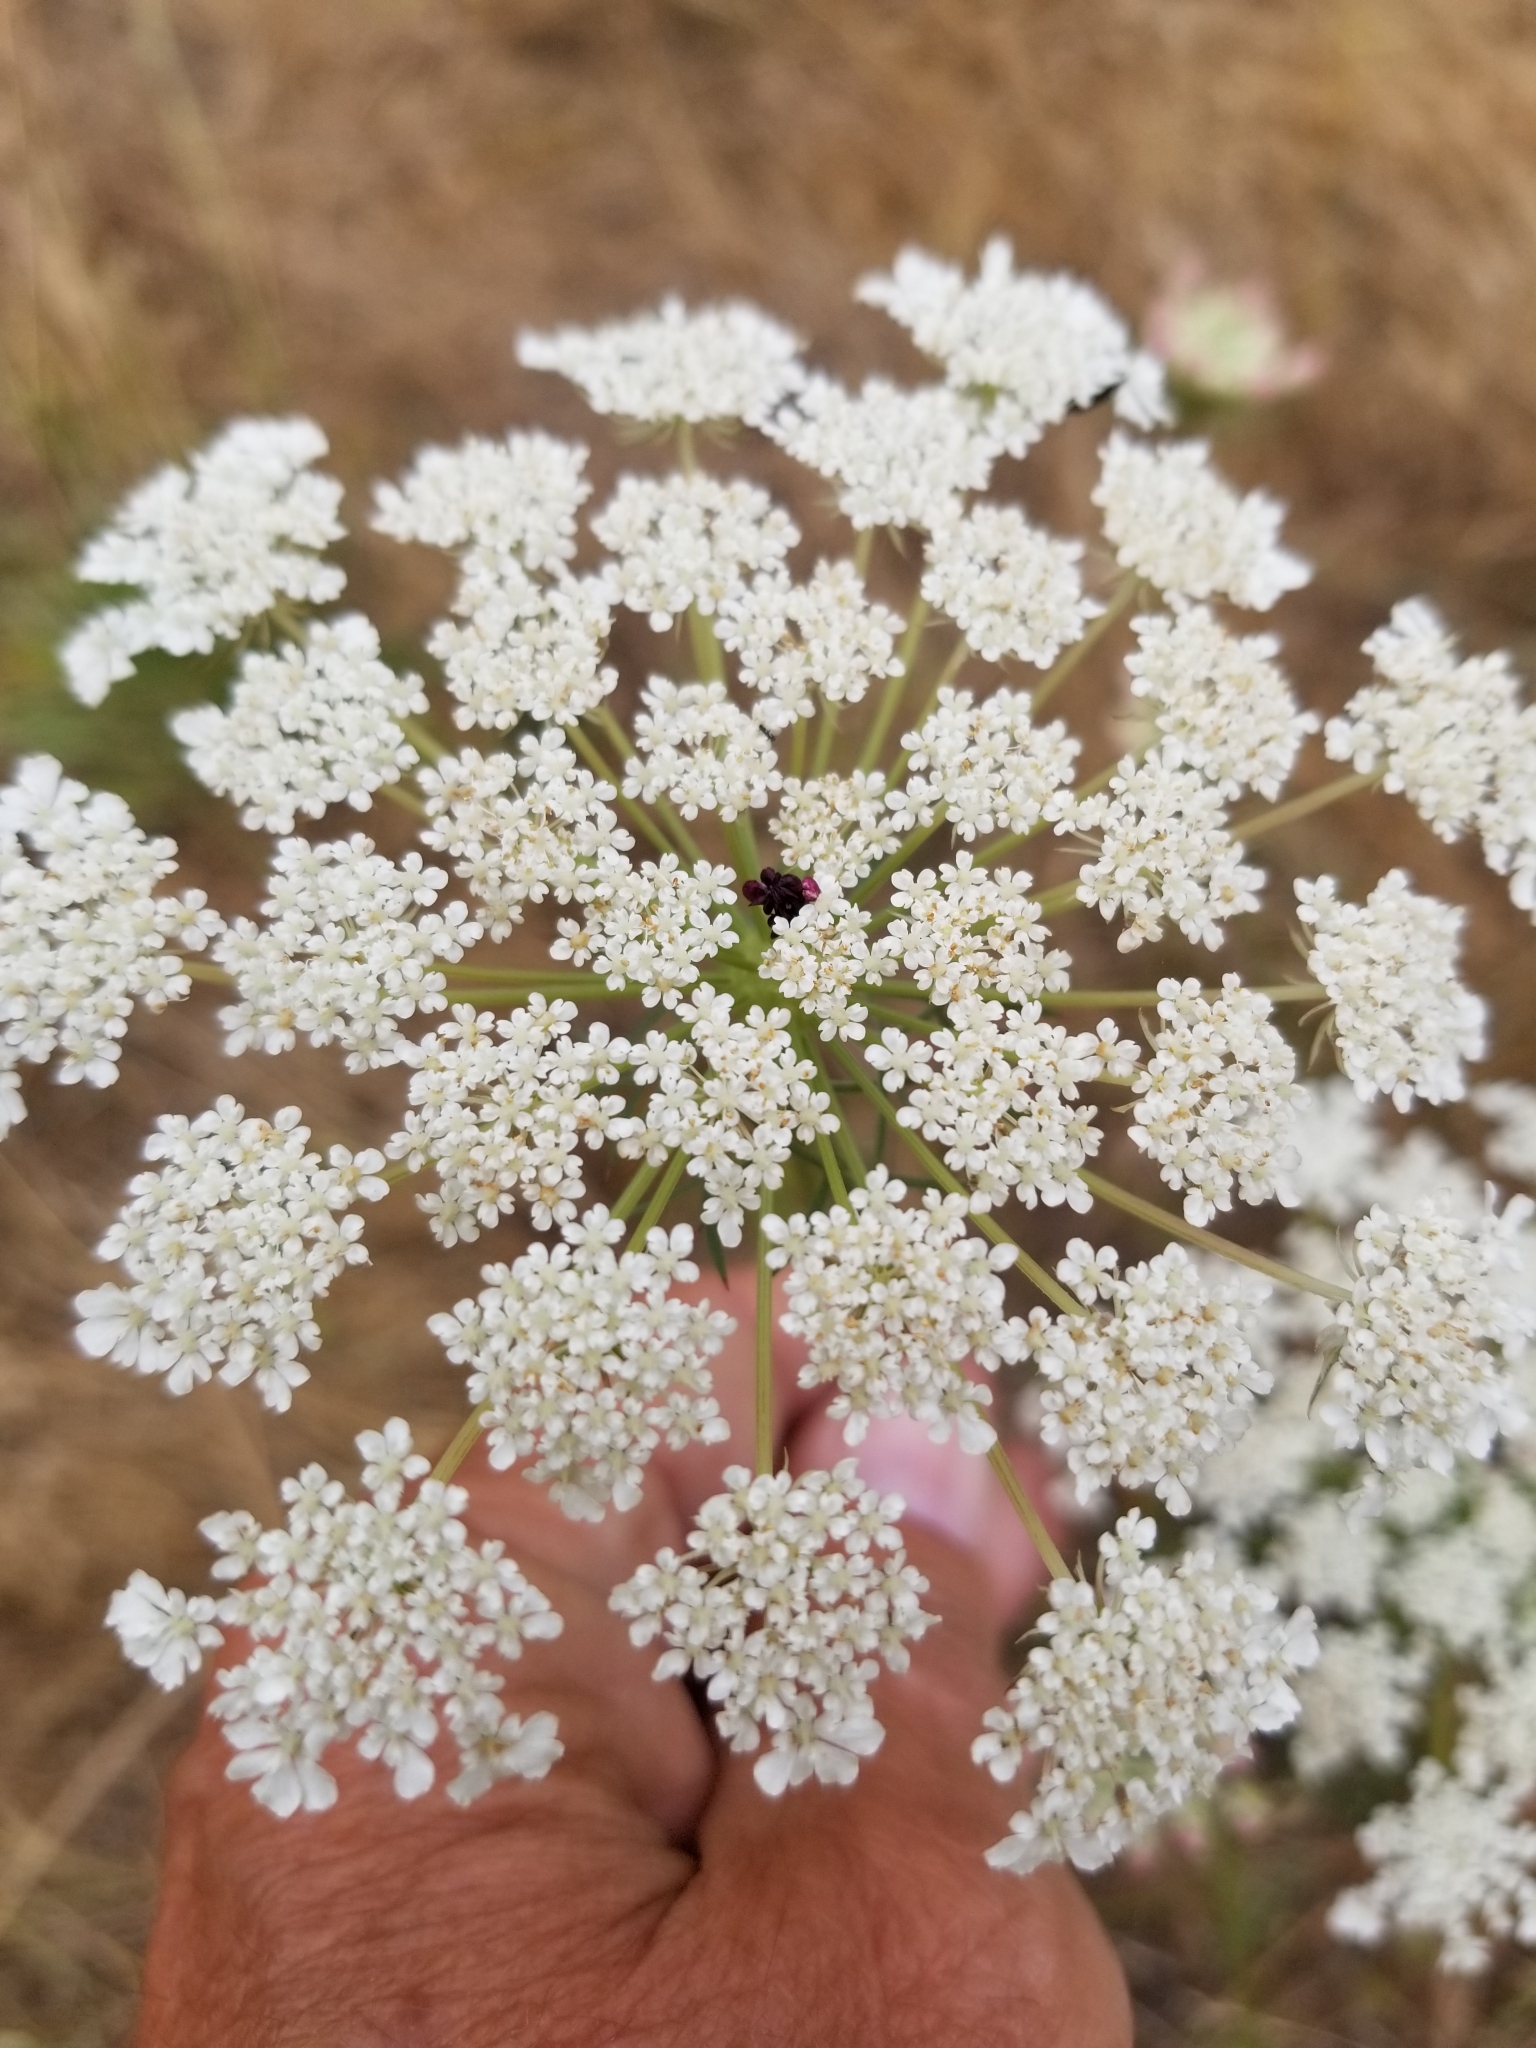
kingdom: Plantae
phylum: Tracheophyta
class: Magnoliopsida
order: Apiales
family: Apiaceae
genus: Daucus
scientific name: Daucus carota
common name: Wild carrot
